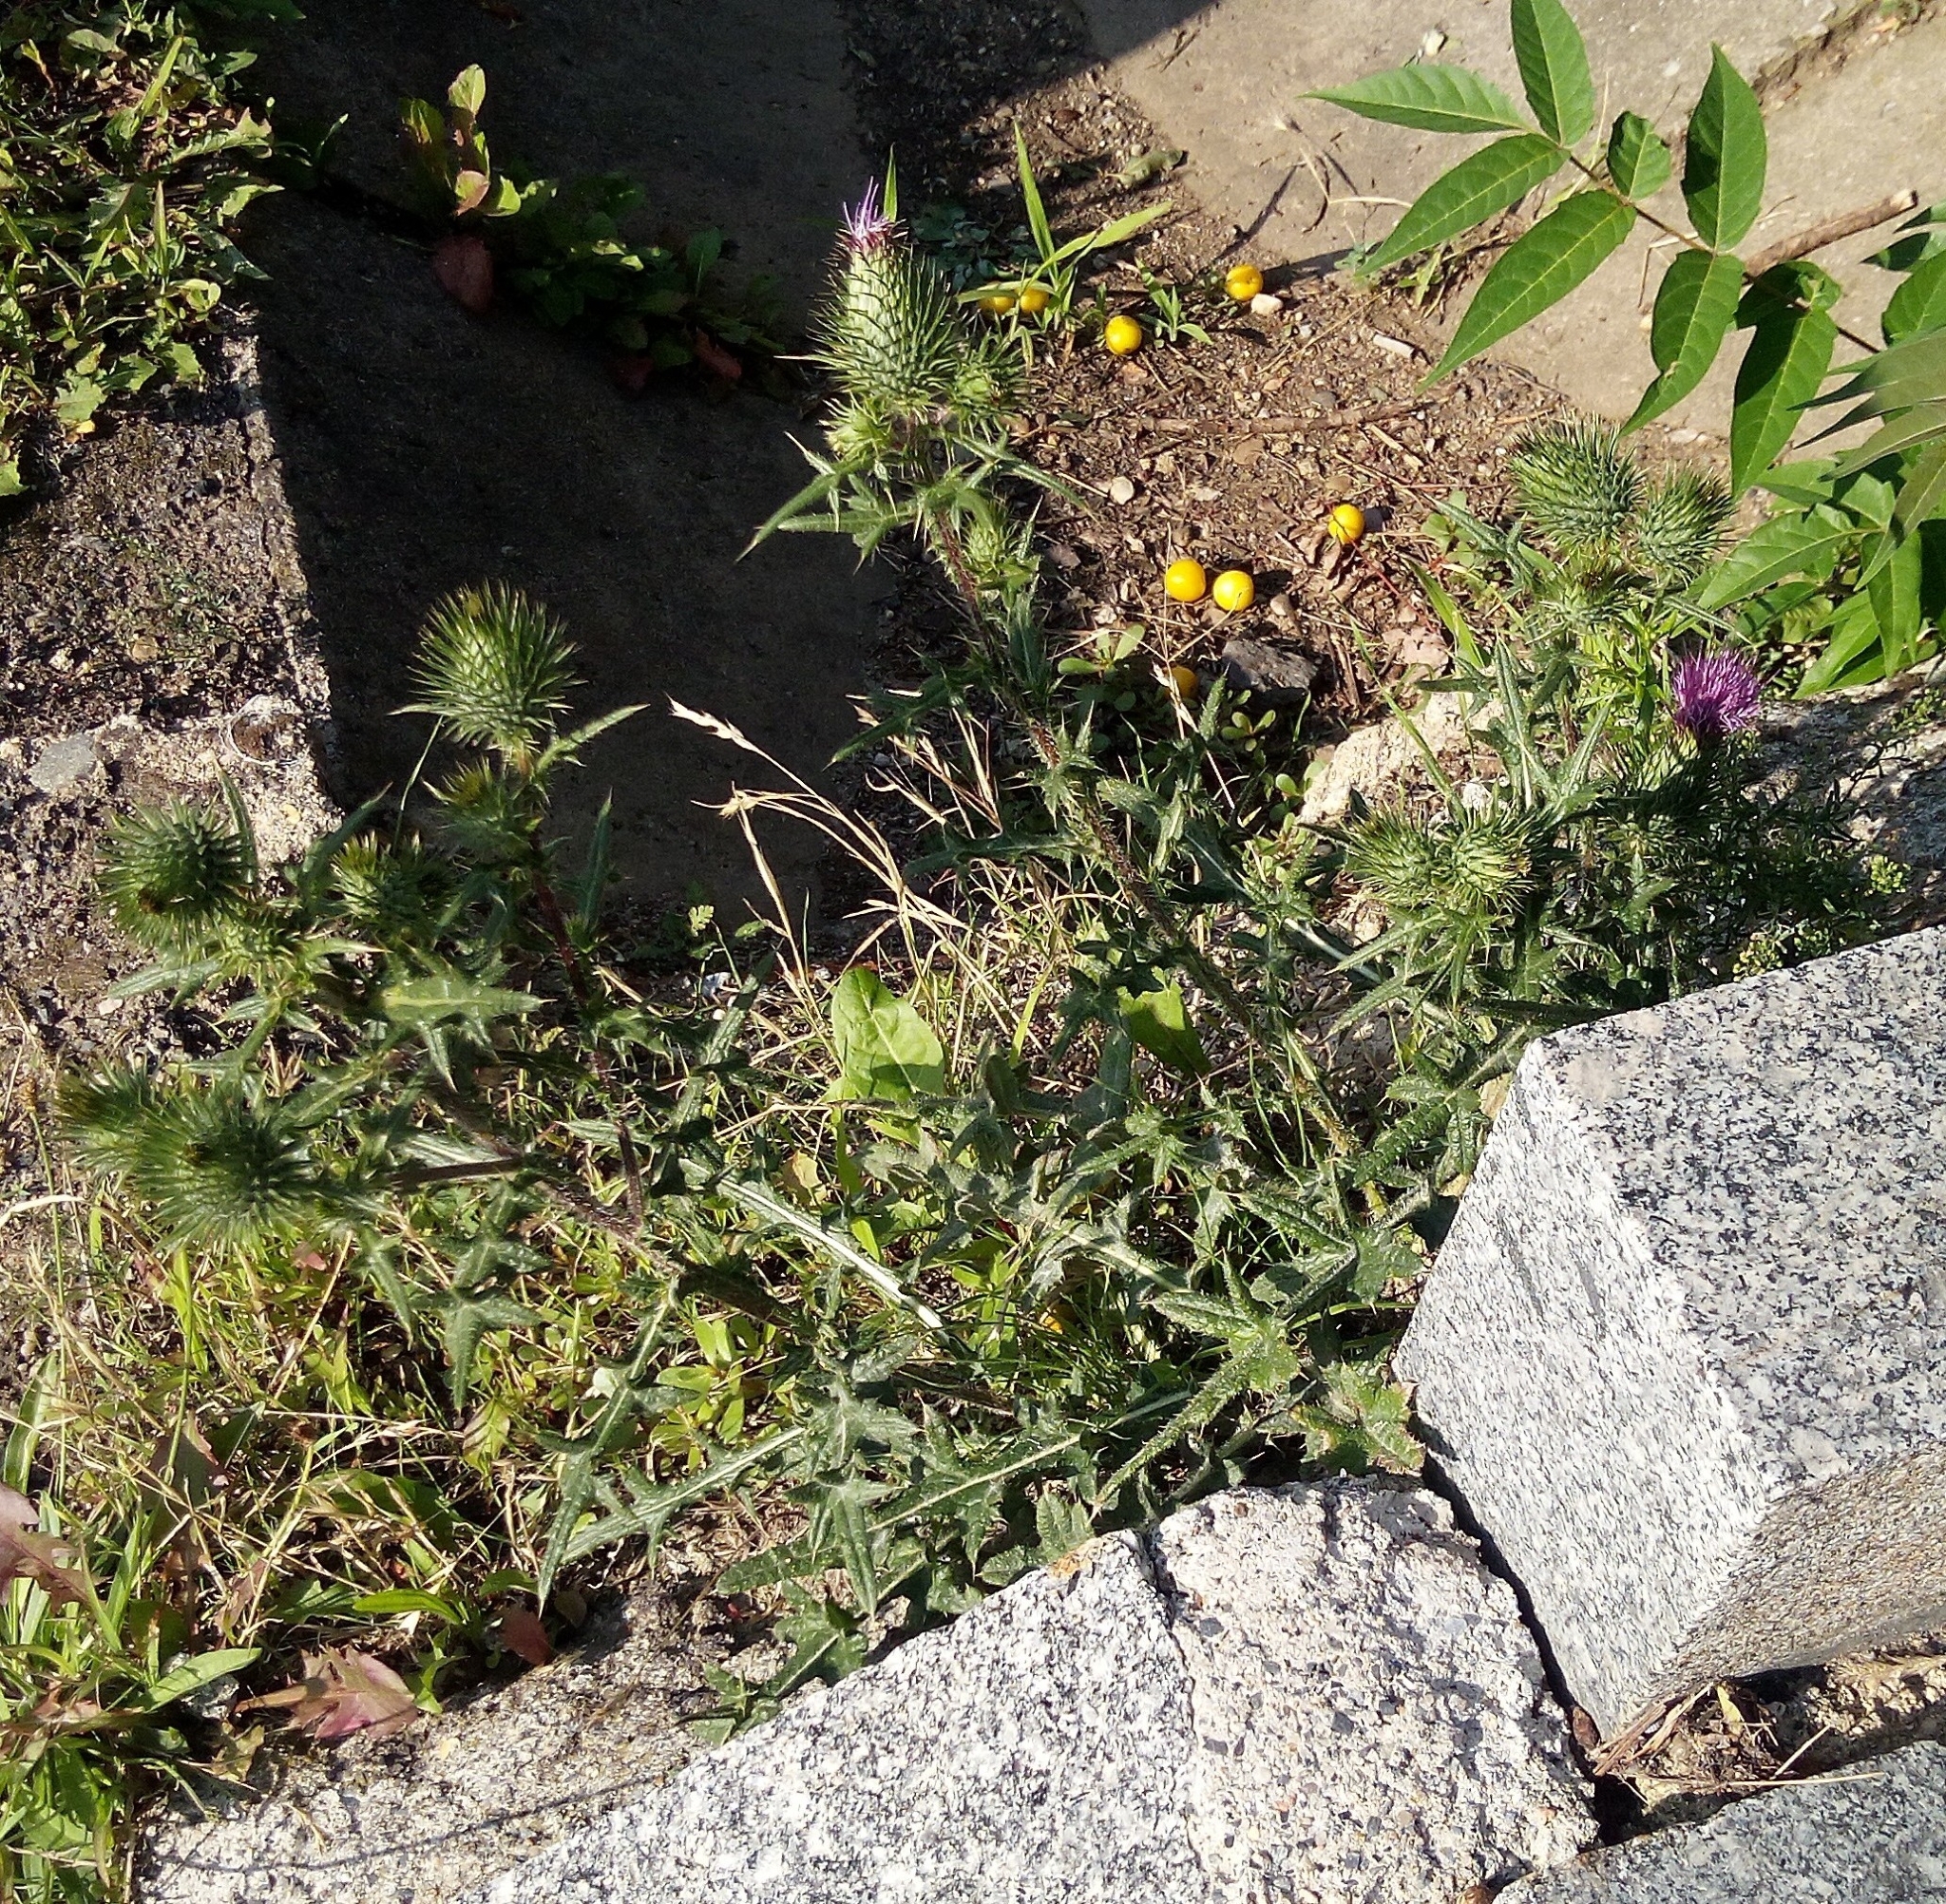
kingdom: Plantae
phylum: Tracheophyta
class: Magnoliopsida
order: Asterales
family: Asteraceae
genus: Cirsium
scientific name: Cirsium vulgare
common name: Bull thistle
